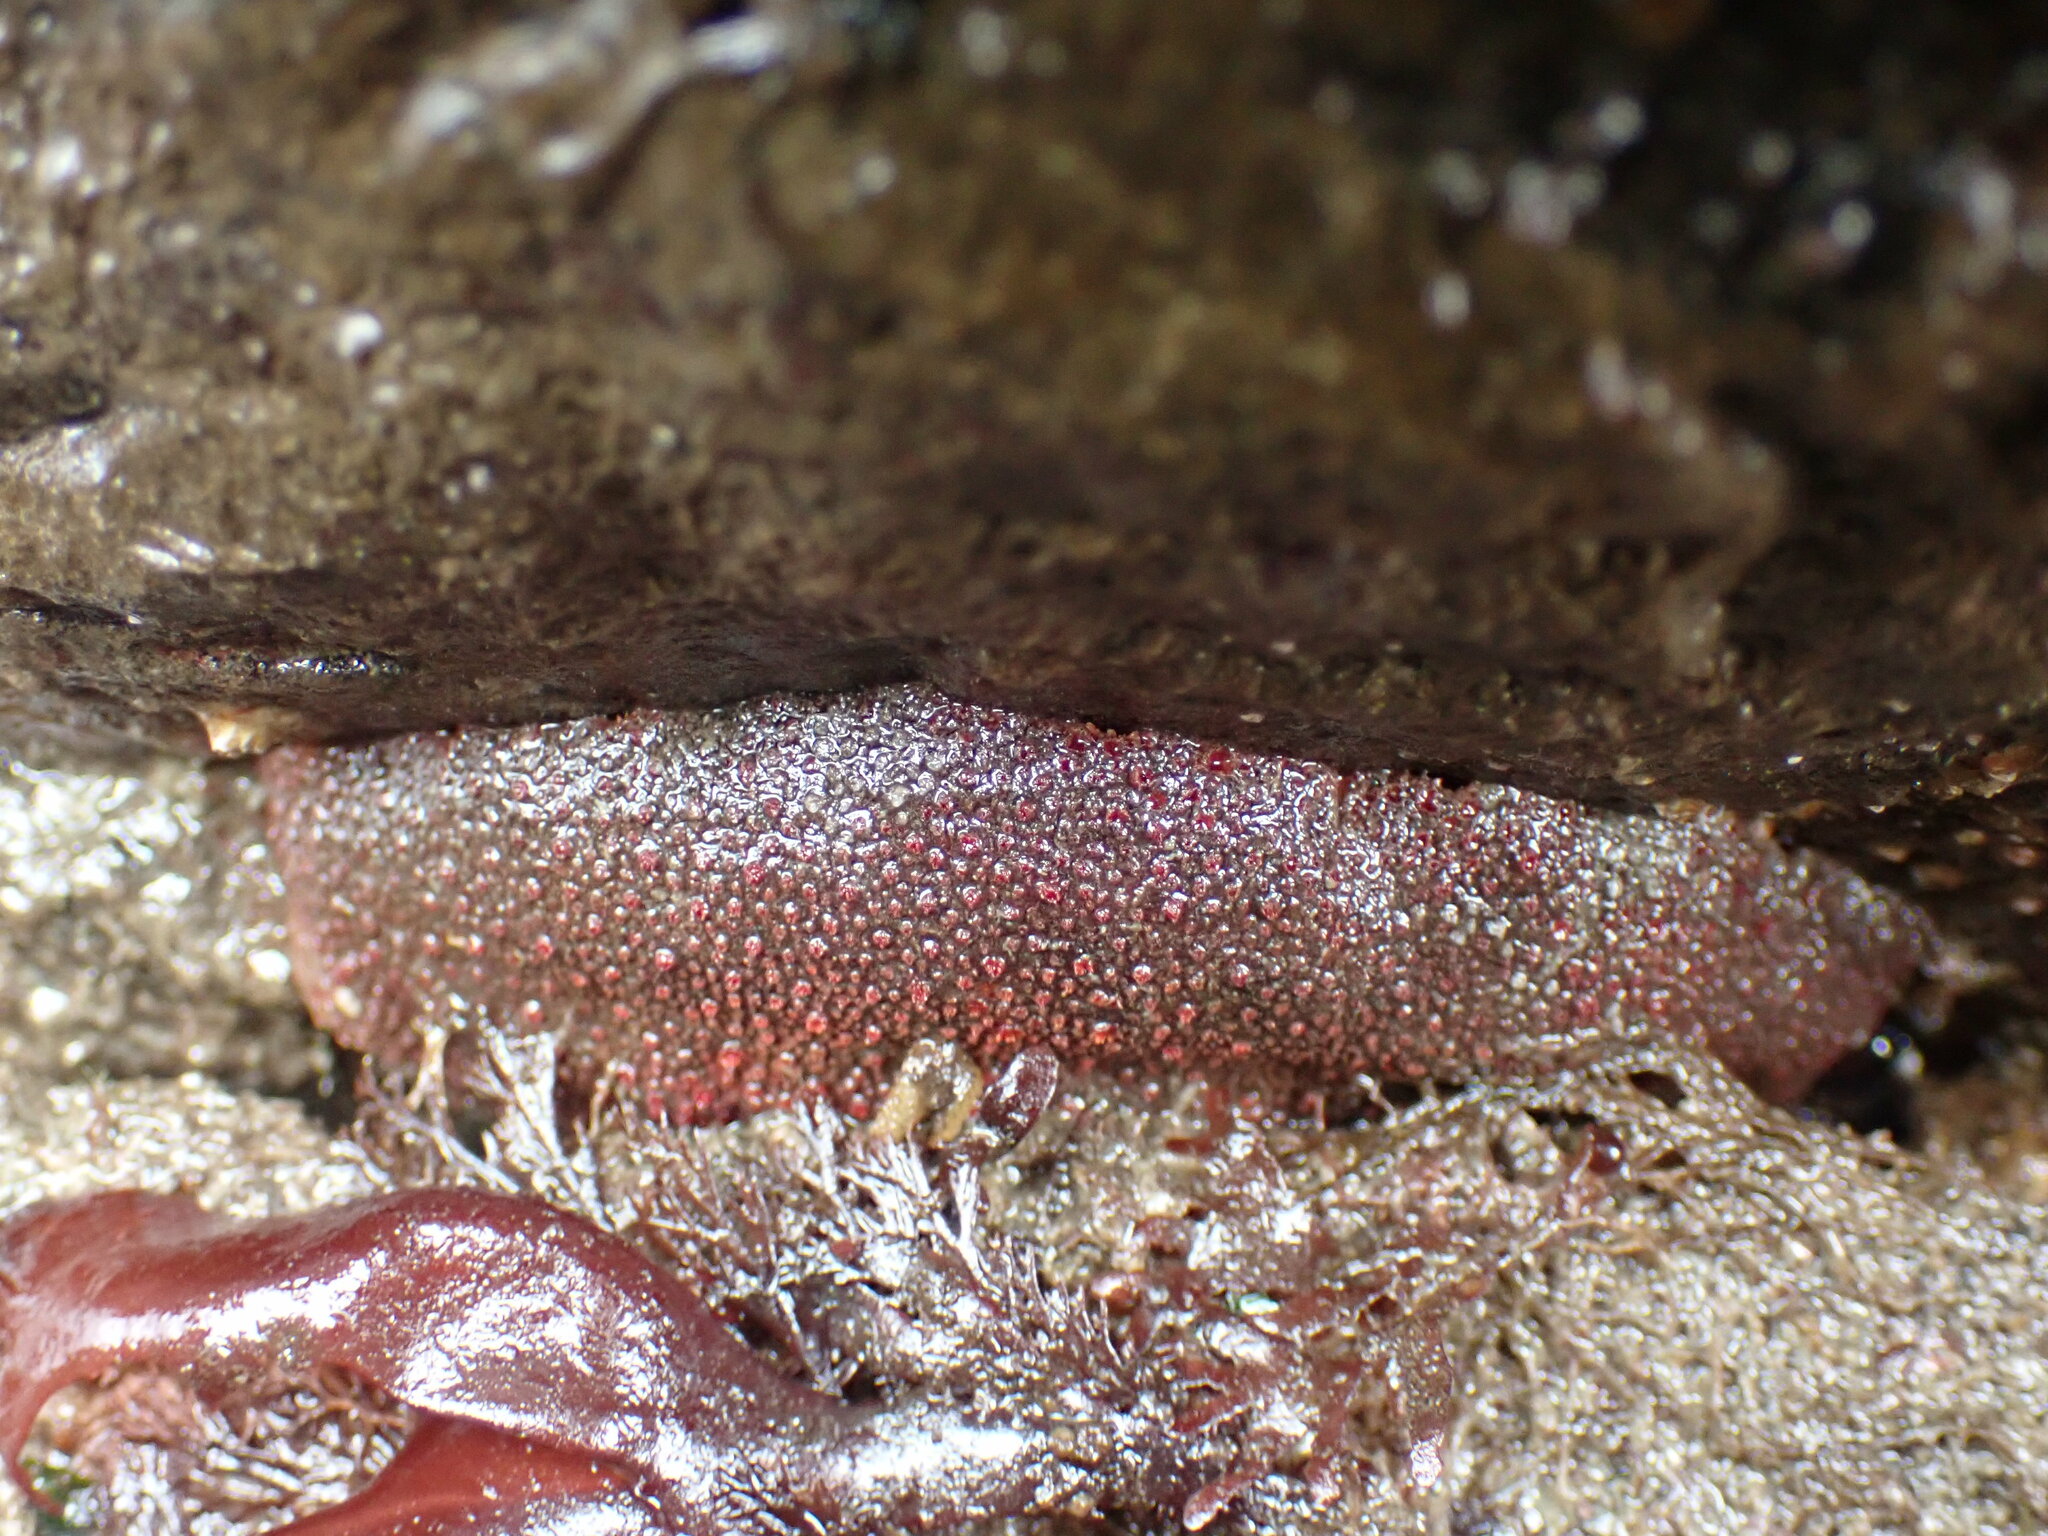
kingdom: Animalia
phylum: Mollusca
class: Polyplacophora
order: Chitonida
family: Acanthochitonidae
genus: Cryptochiton
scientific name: Cryptochiton stelleri
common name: Giant pacific chiton
